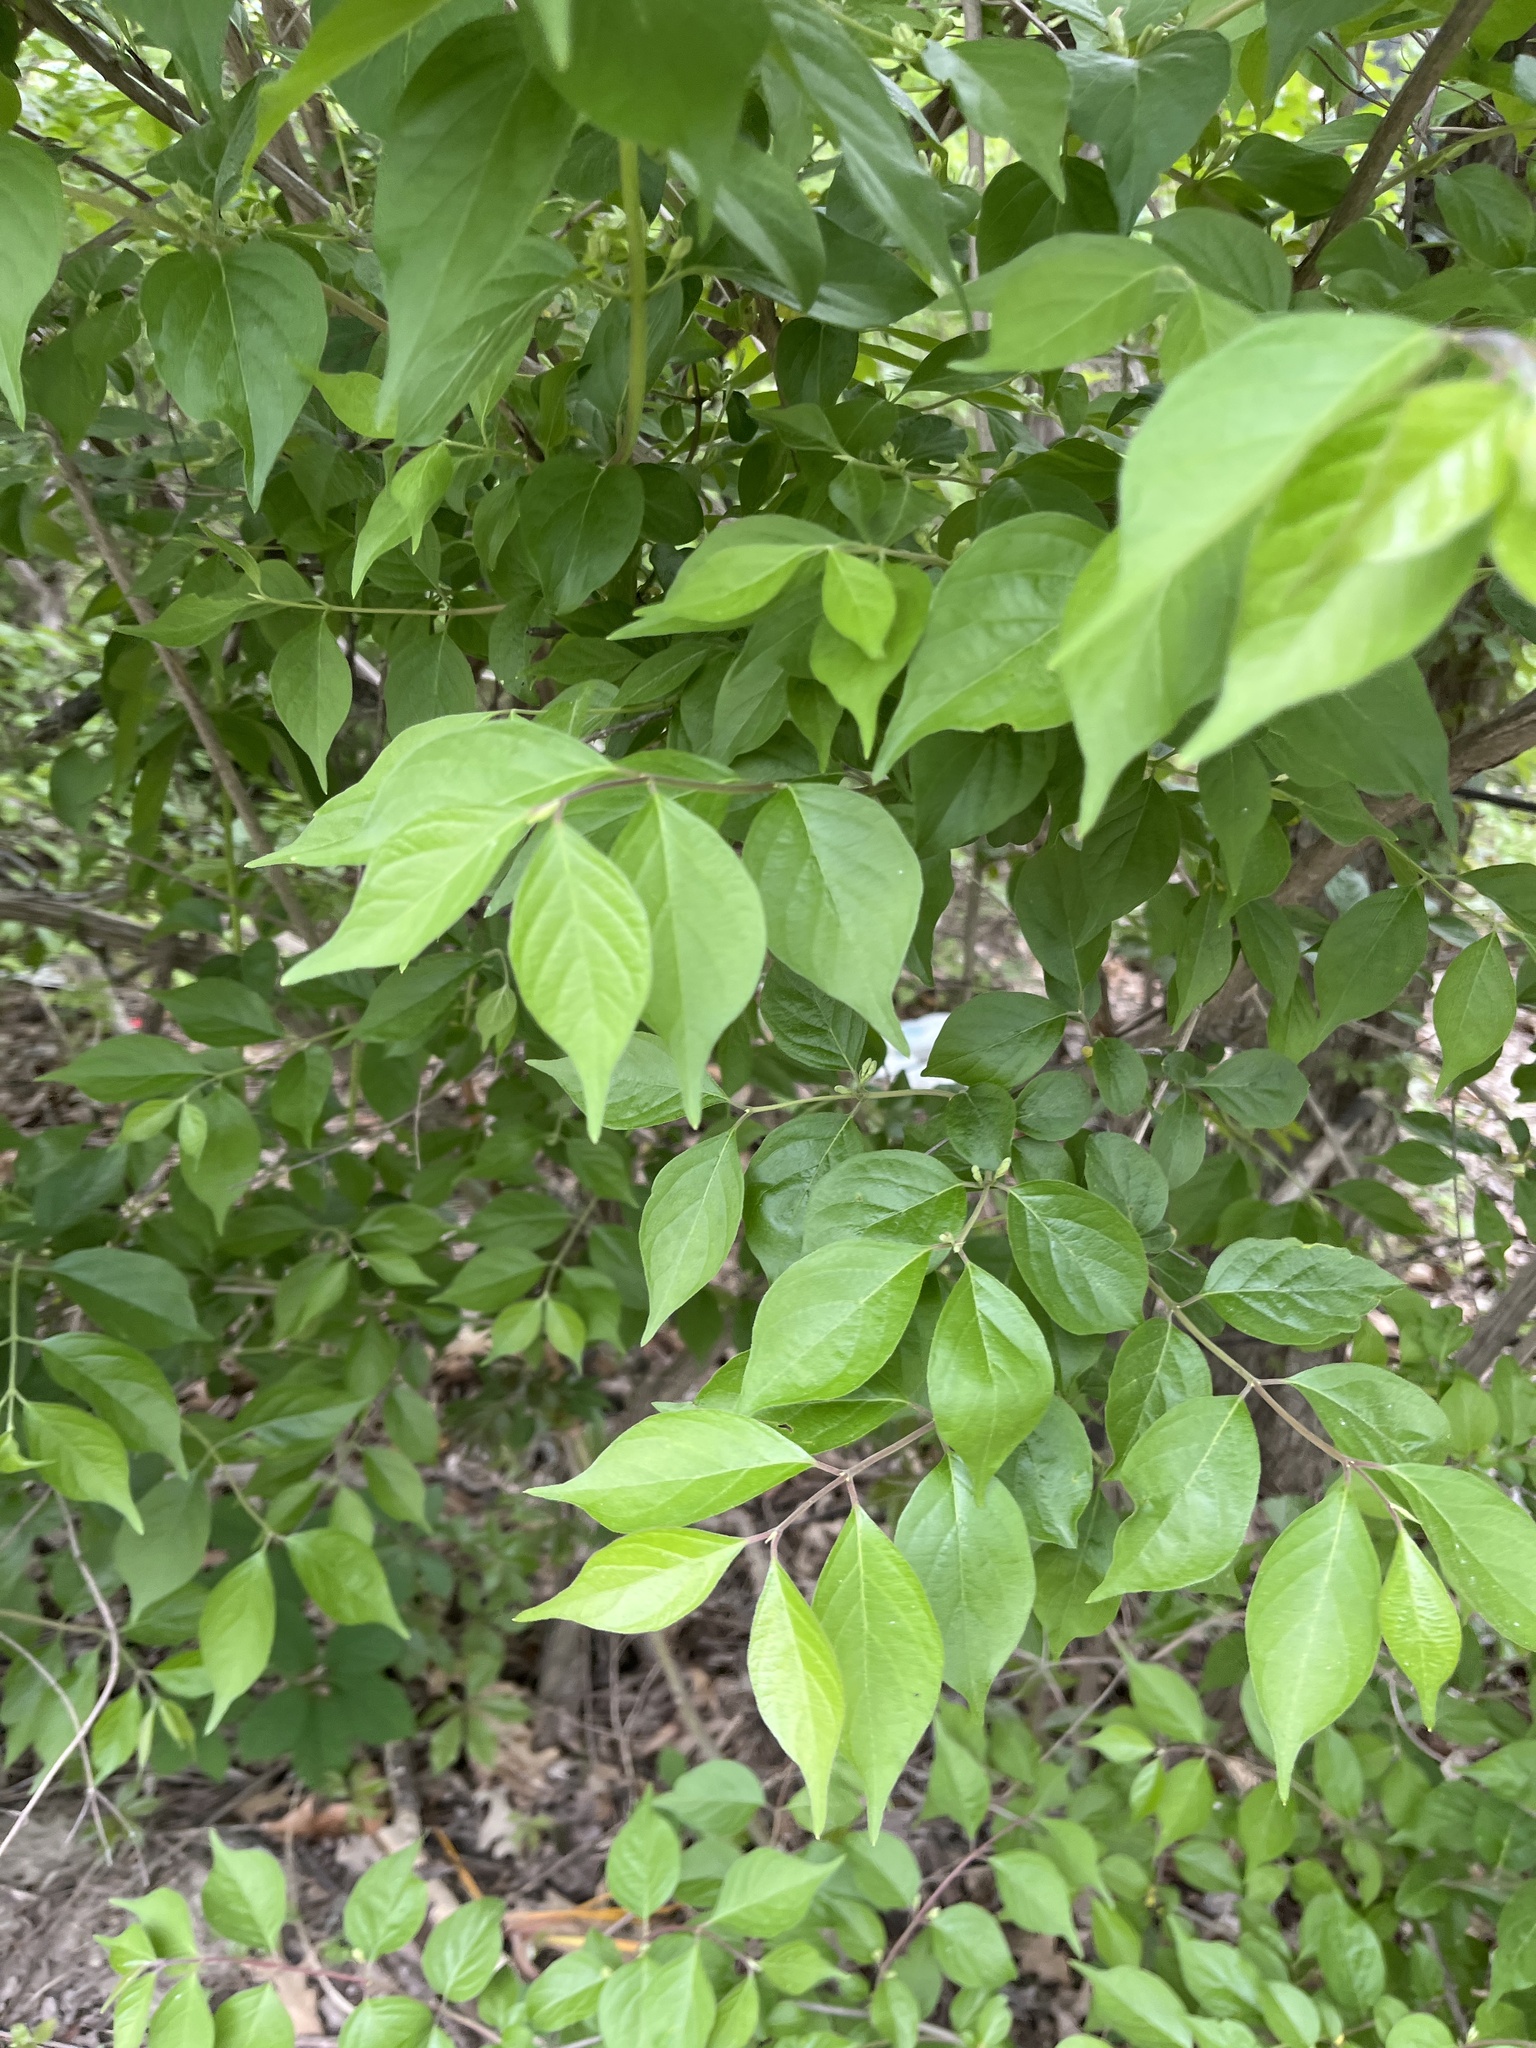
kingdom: Plantae
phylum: Tracheophyta
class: Magnoliopsida
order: Dipsacales
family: Caprifoliaceae
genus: Lonicera
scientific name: Lonicera maackii
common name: Amur honeysuckle
